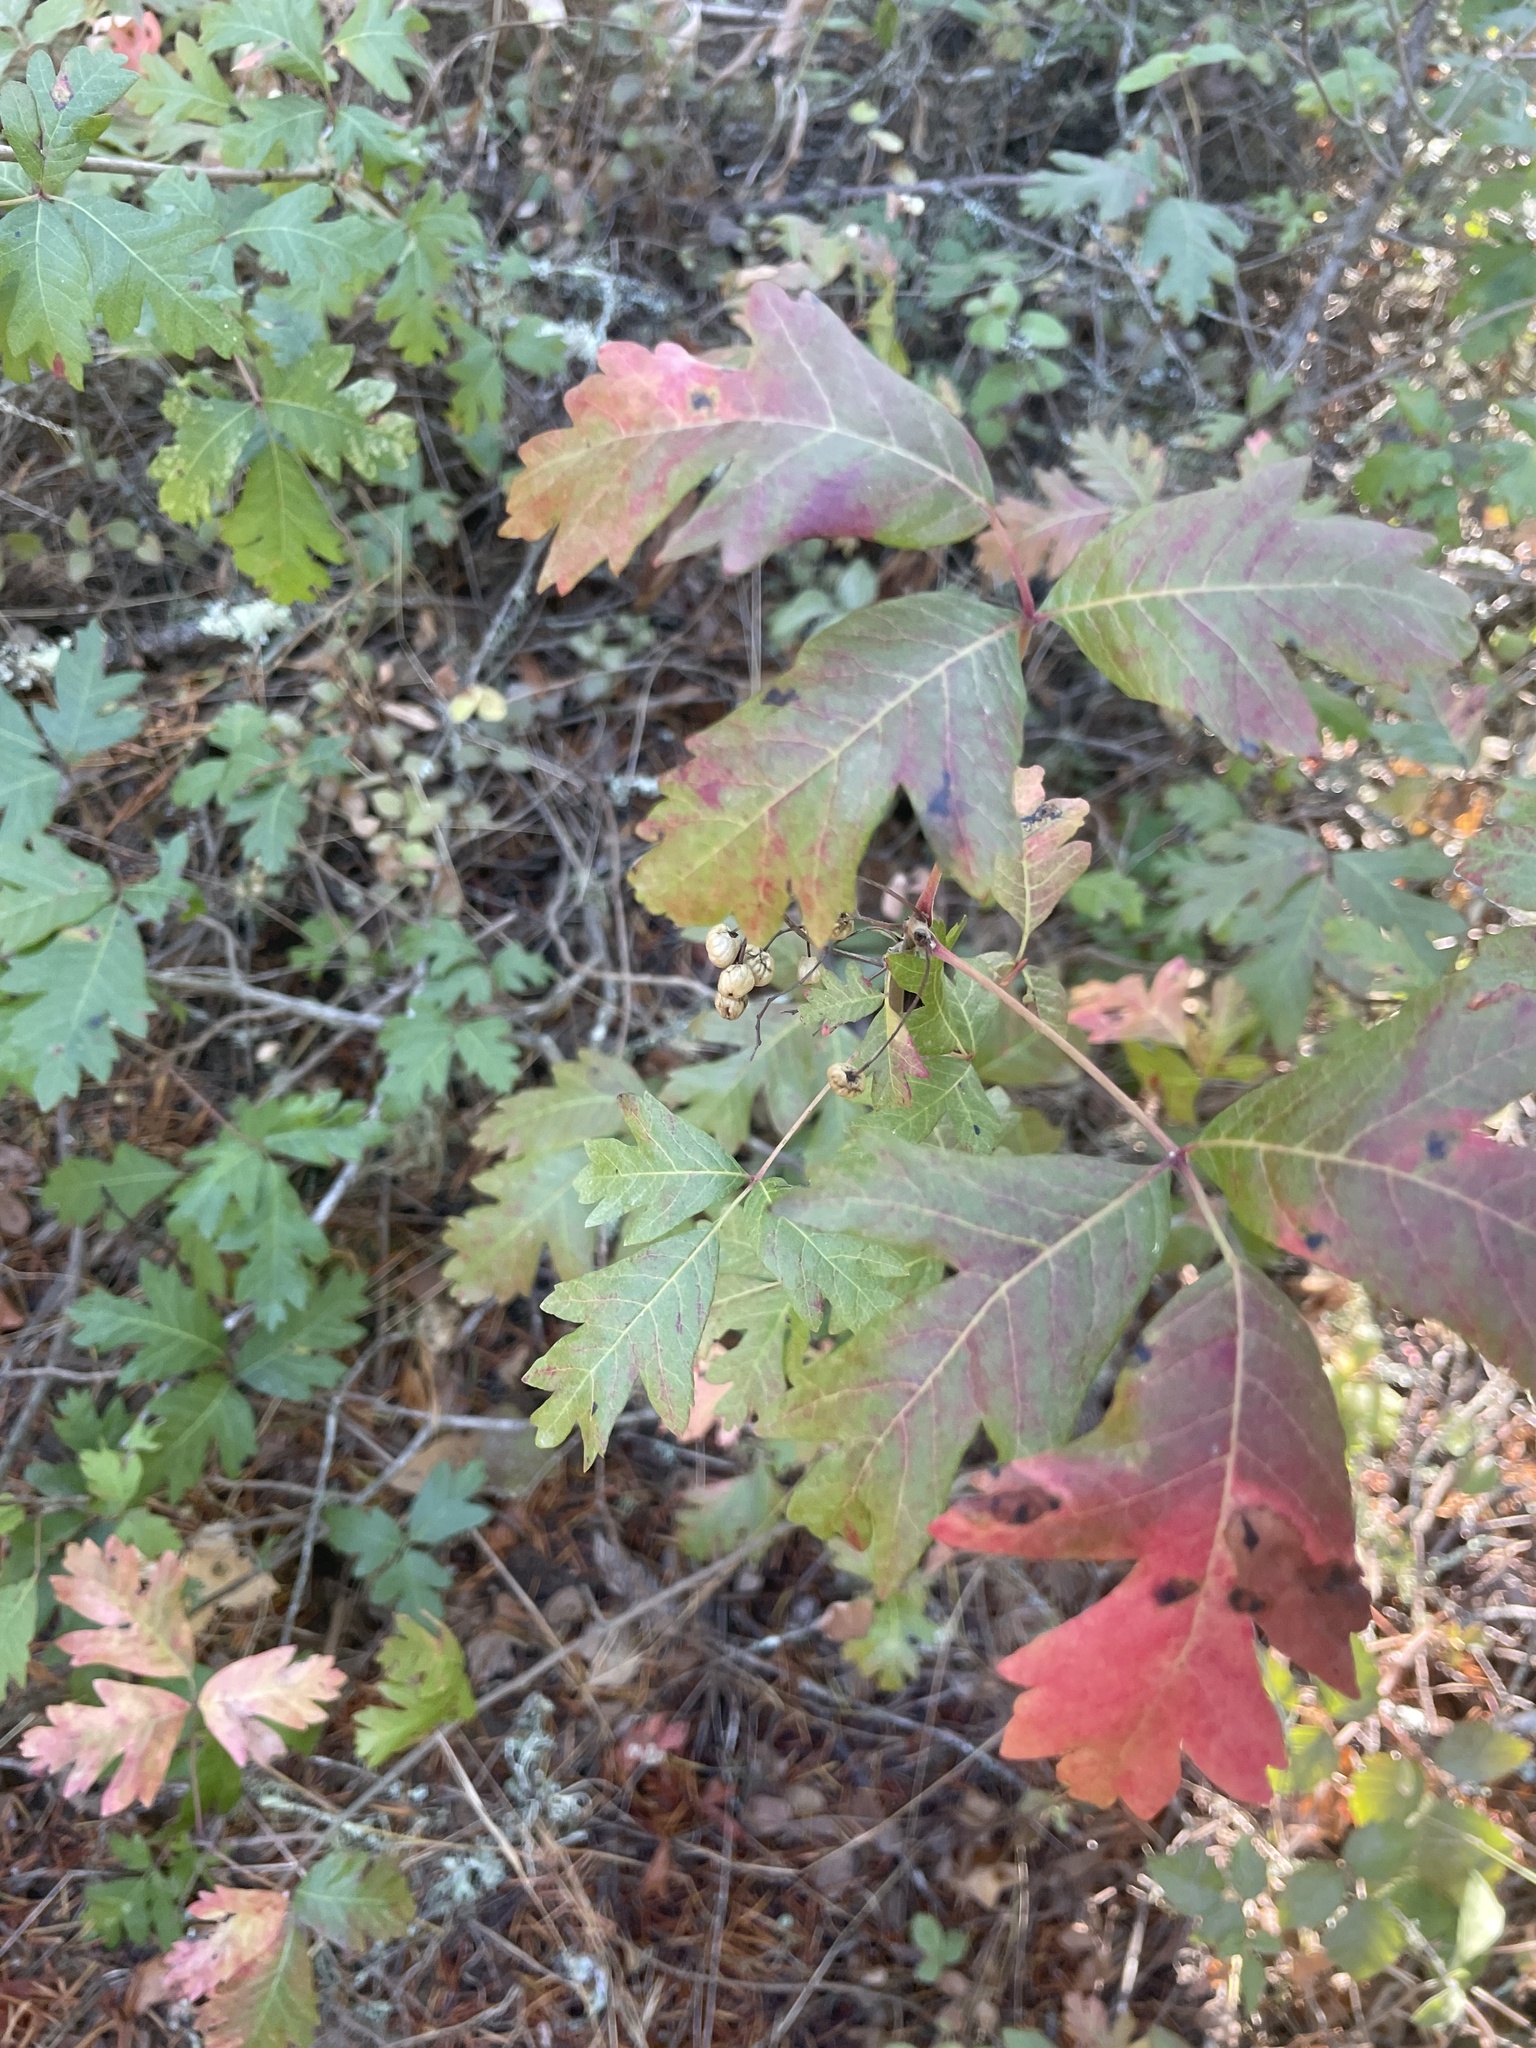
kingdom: Plantae
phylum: Tracheophyta
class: Magnoliopsida
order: Sapindales
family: Anacardiaceae
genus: Toxicodendron
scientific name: Toxicodendron diversilobum
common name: Pacific poison-oak
